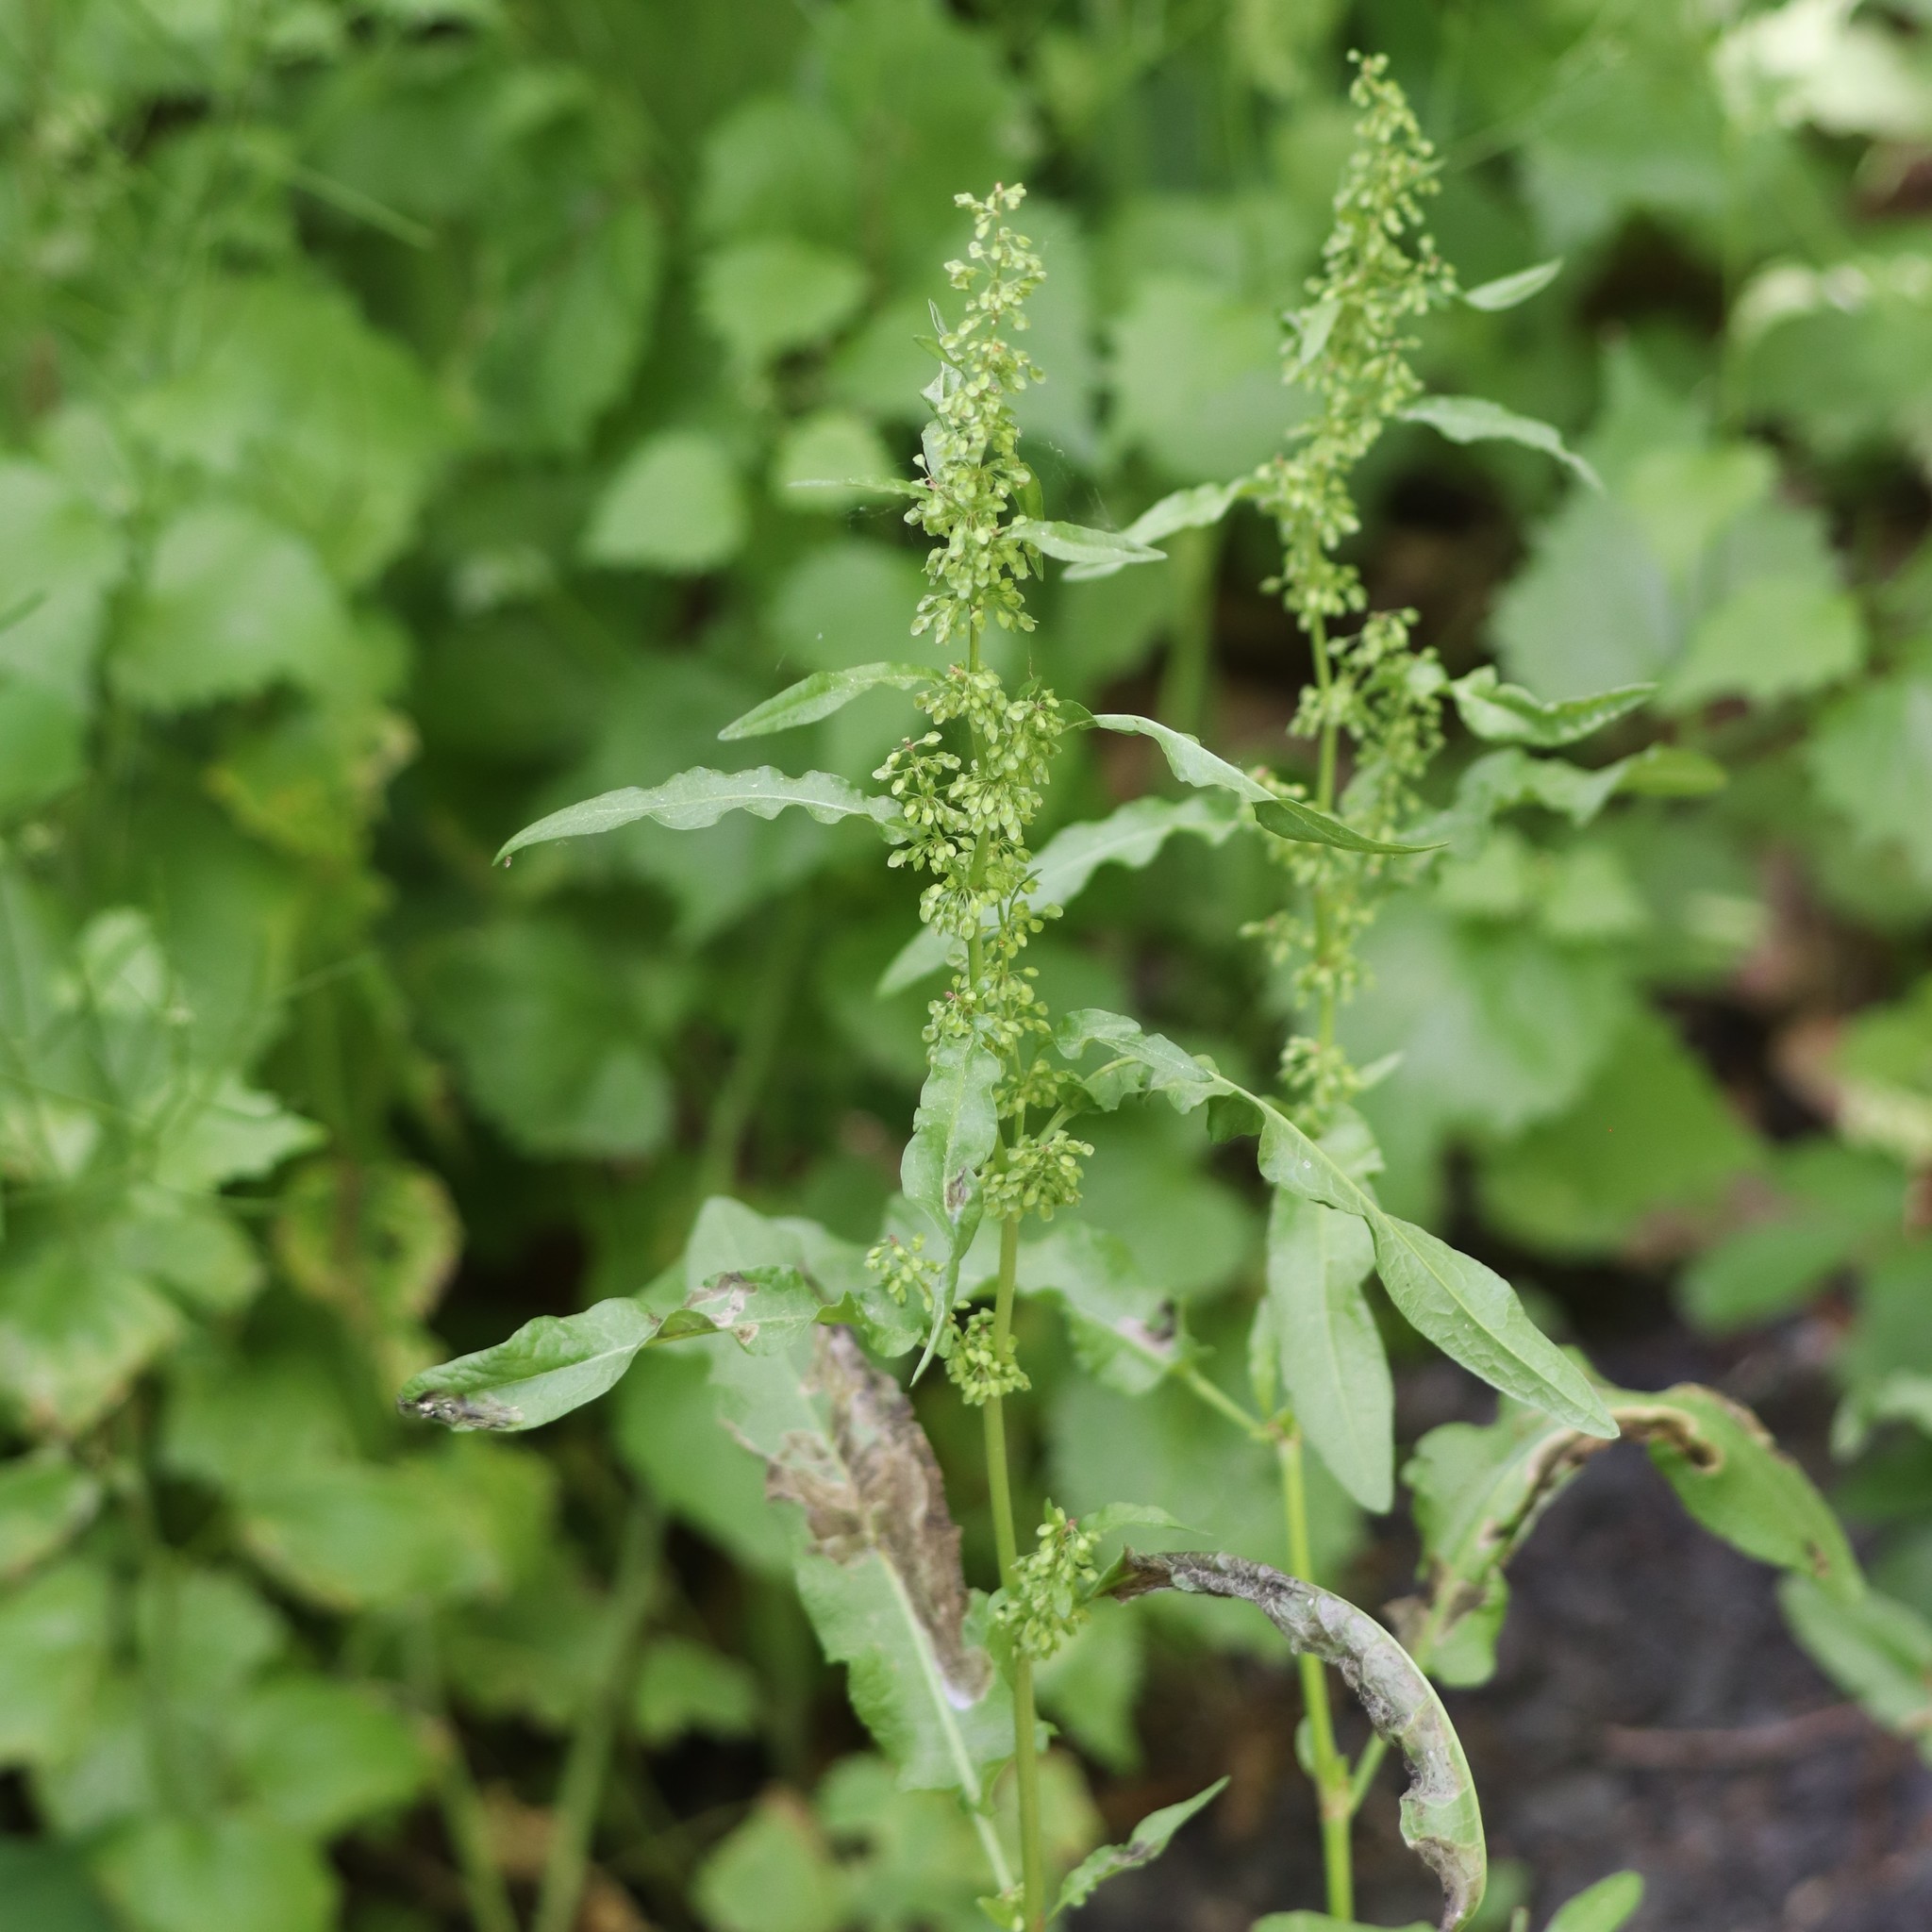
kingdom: Plantae
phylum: Tracheophyta
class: Magnoliopsida
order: Caryophyllales
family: Polygonaceae
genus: Rumex
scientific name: Rumex crispus
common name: Curled dock
